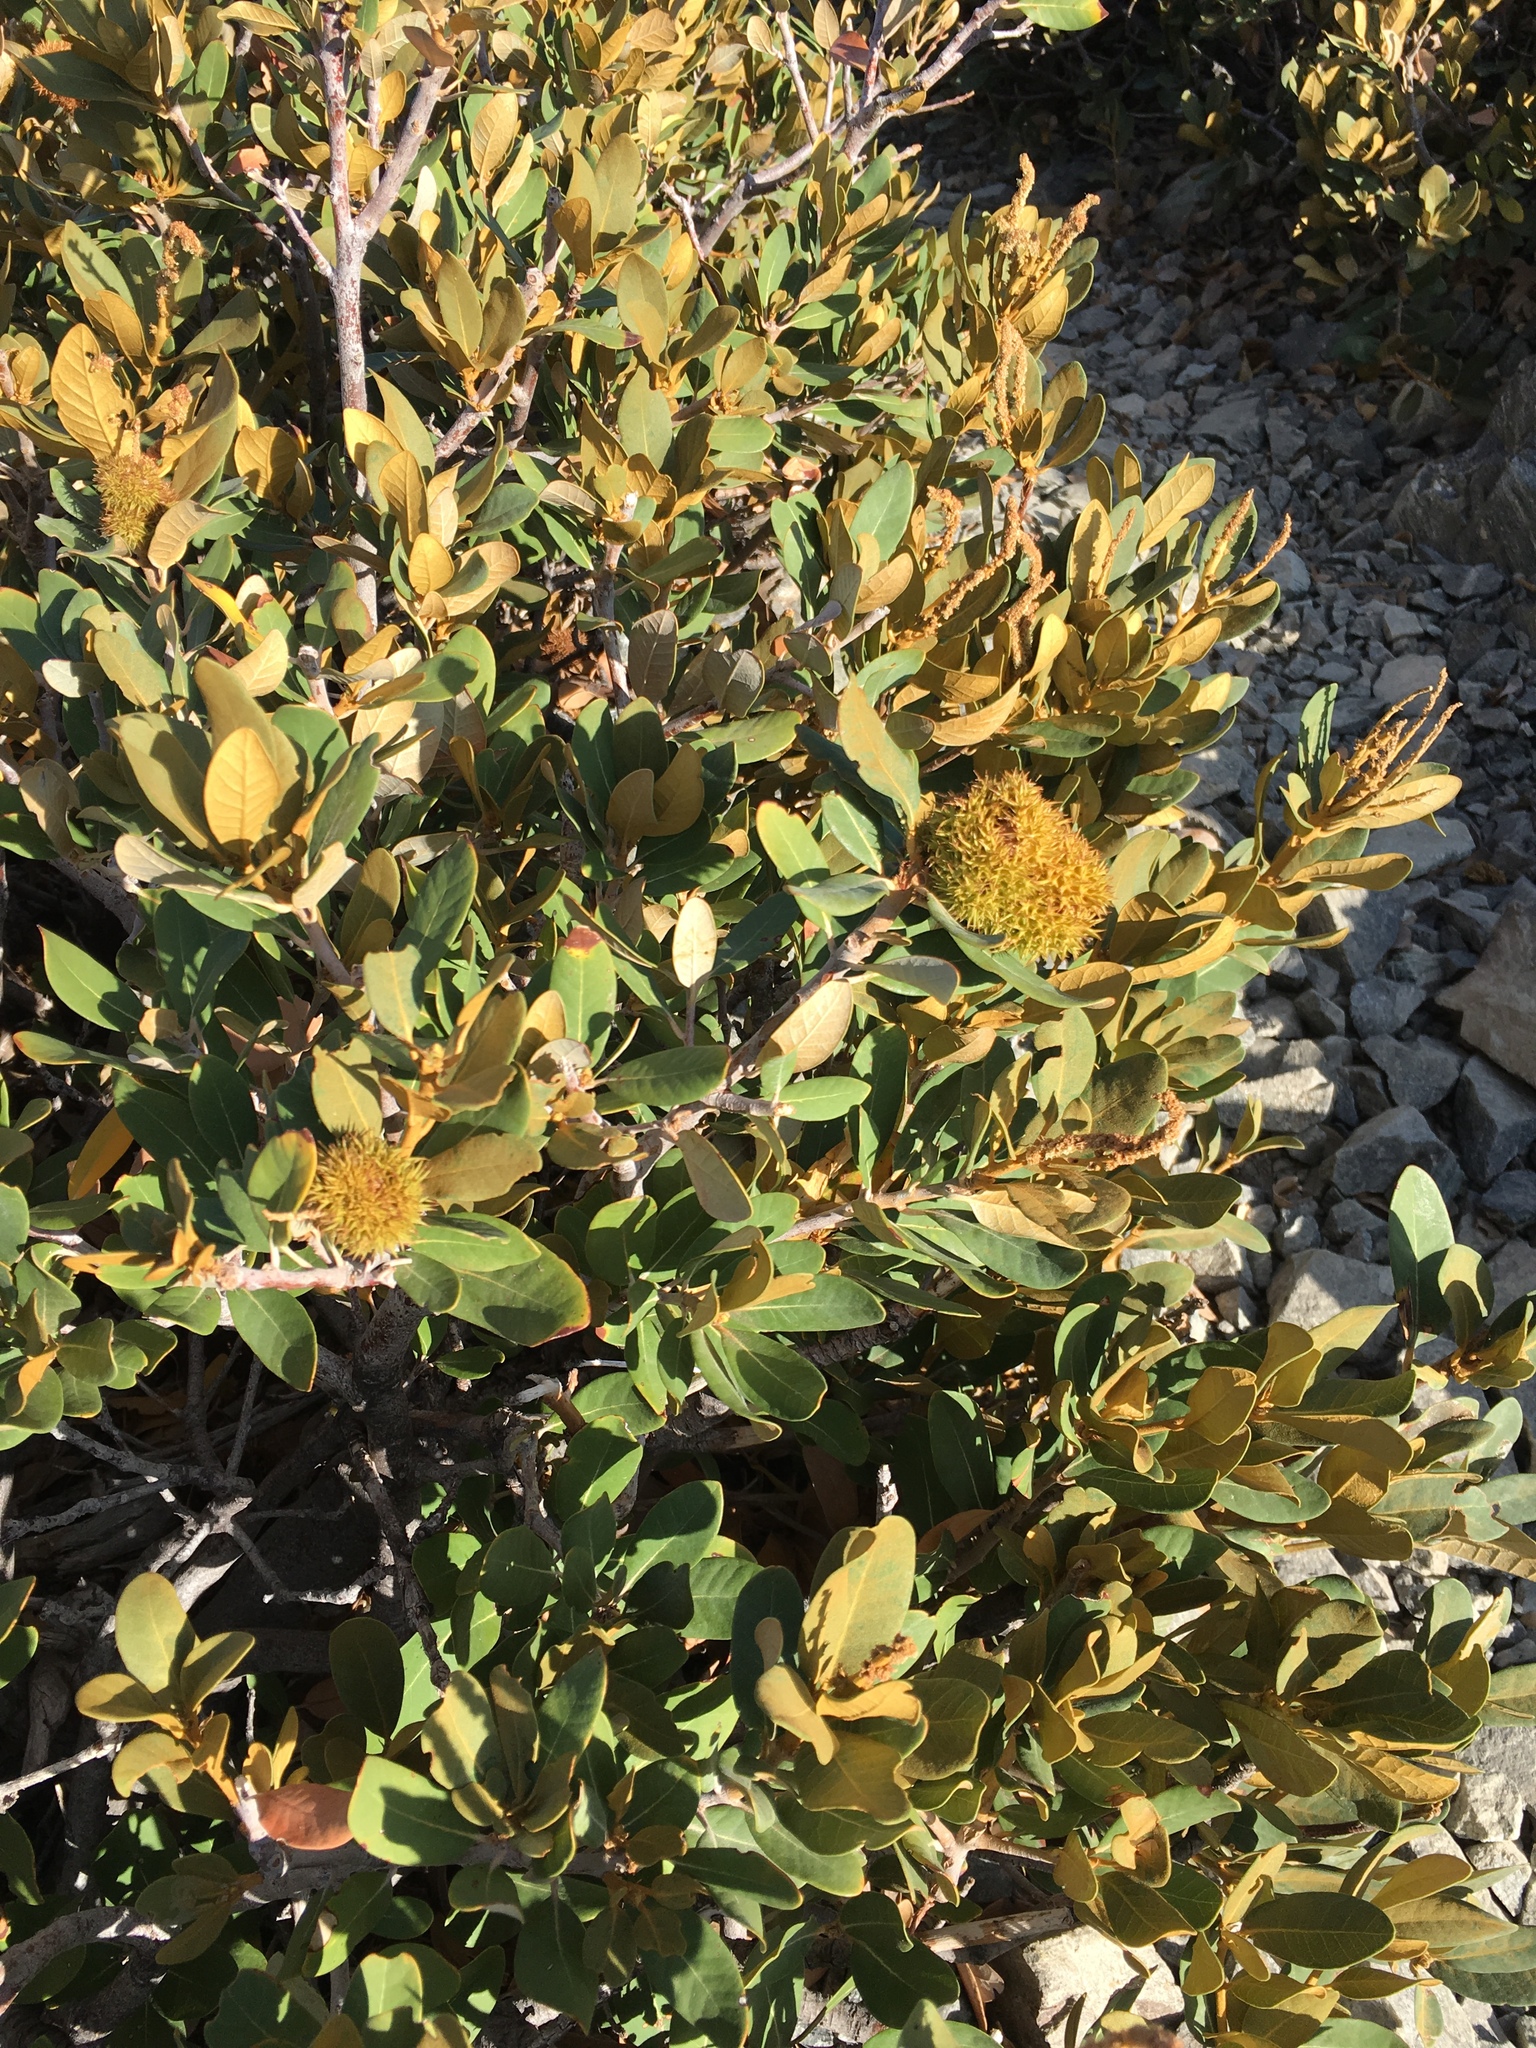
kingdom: Plantae
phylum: Tracheophyta
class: Magnoliopsida
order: Fagales
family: Fagaceae
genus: Chrysolepis
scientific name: Chrysolepis sempervirens
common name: Bush chinquapin
